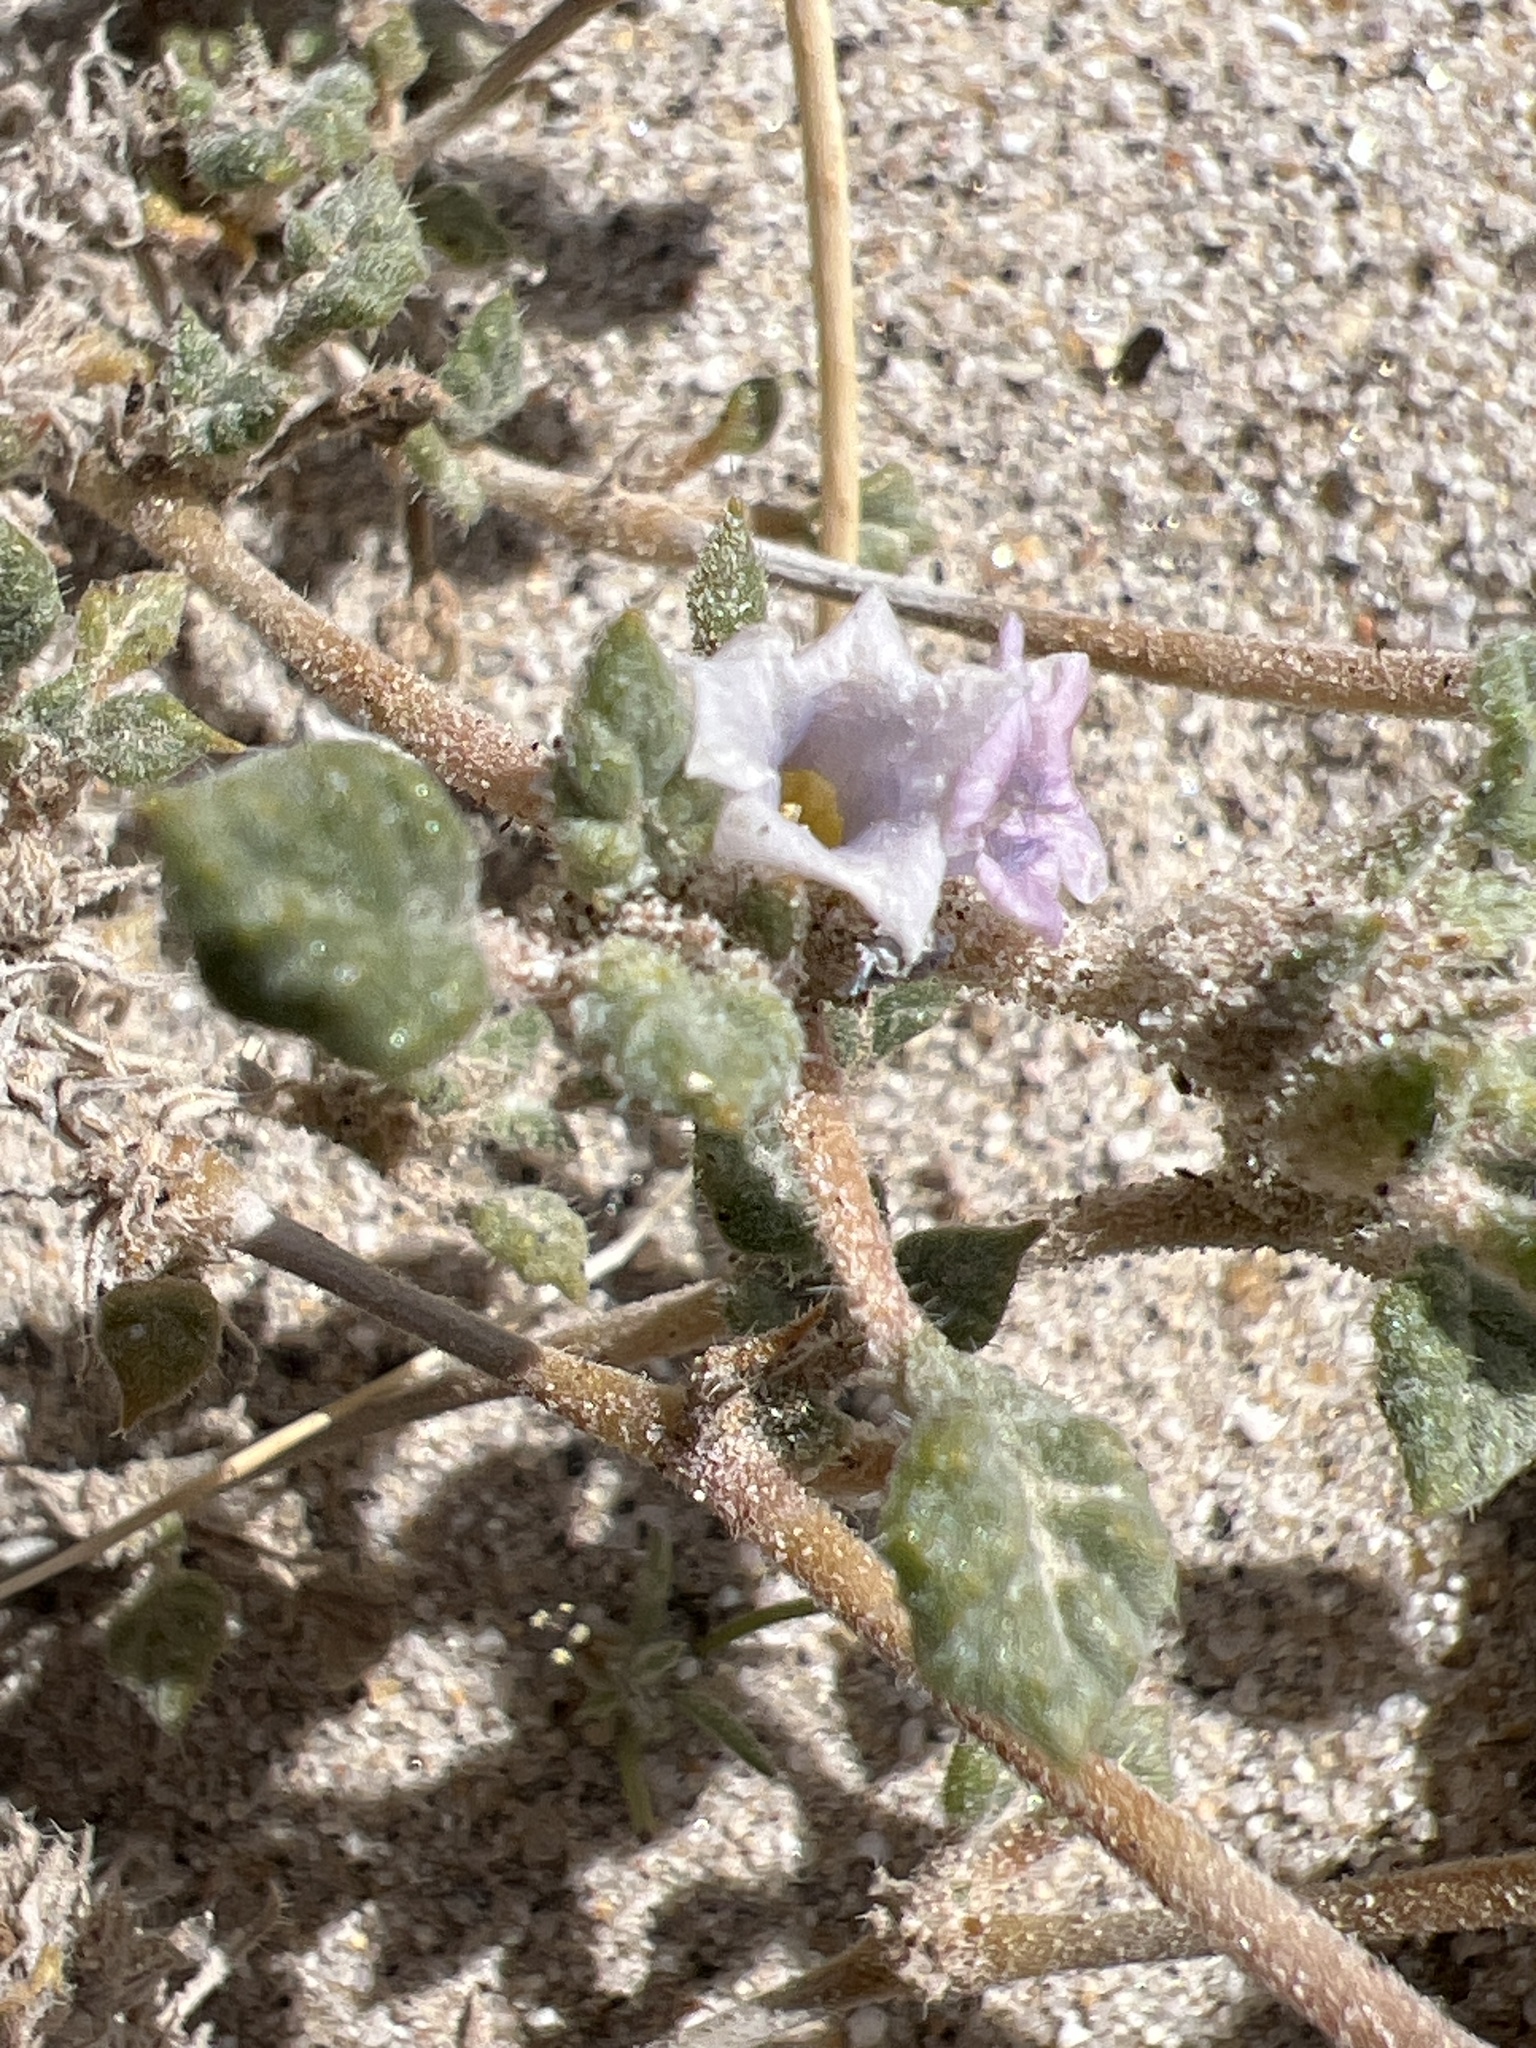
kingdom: Plantae
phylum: Tracheophyta
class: Magnoliopsida
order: Boraginales
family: Ehretiaceae
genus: Tiquilia
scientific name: Tiquilia palmeri
